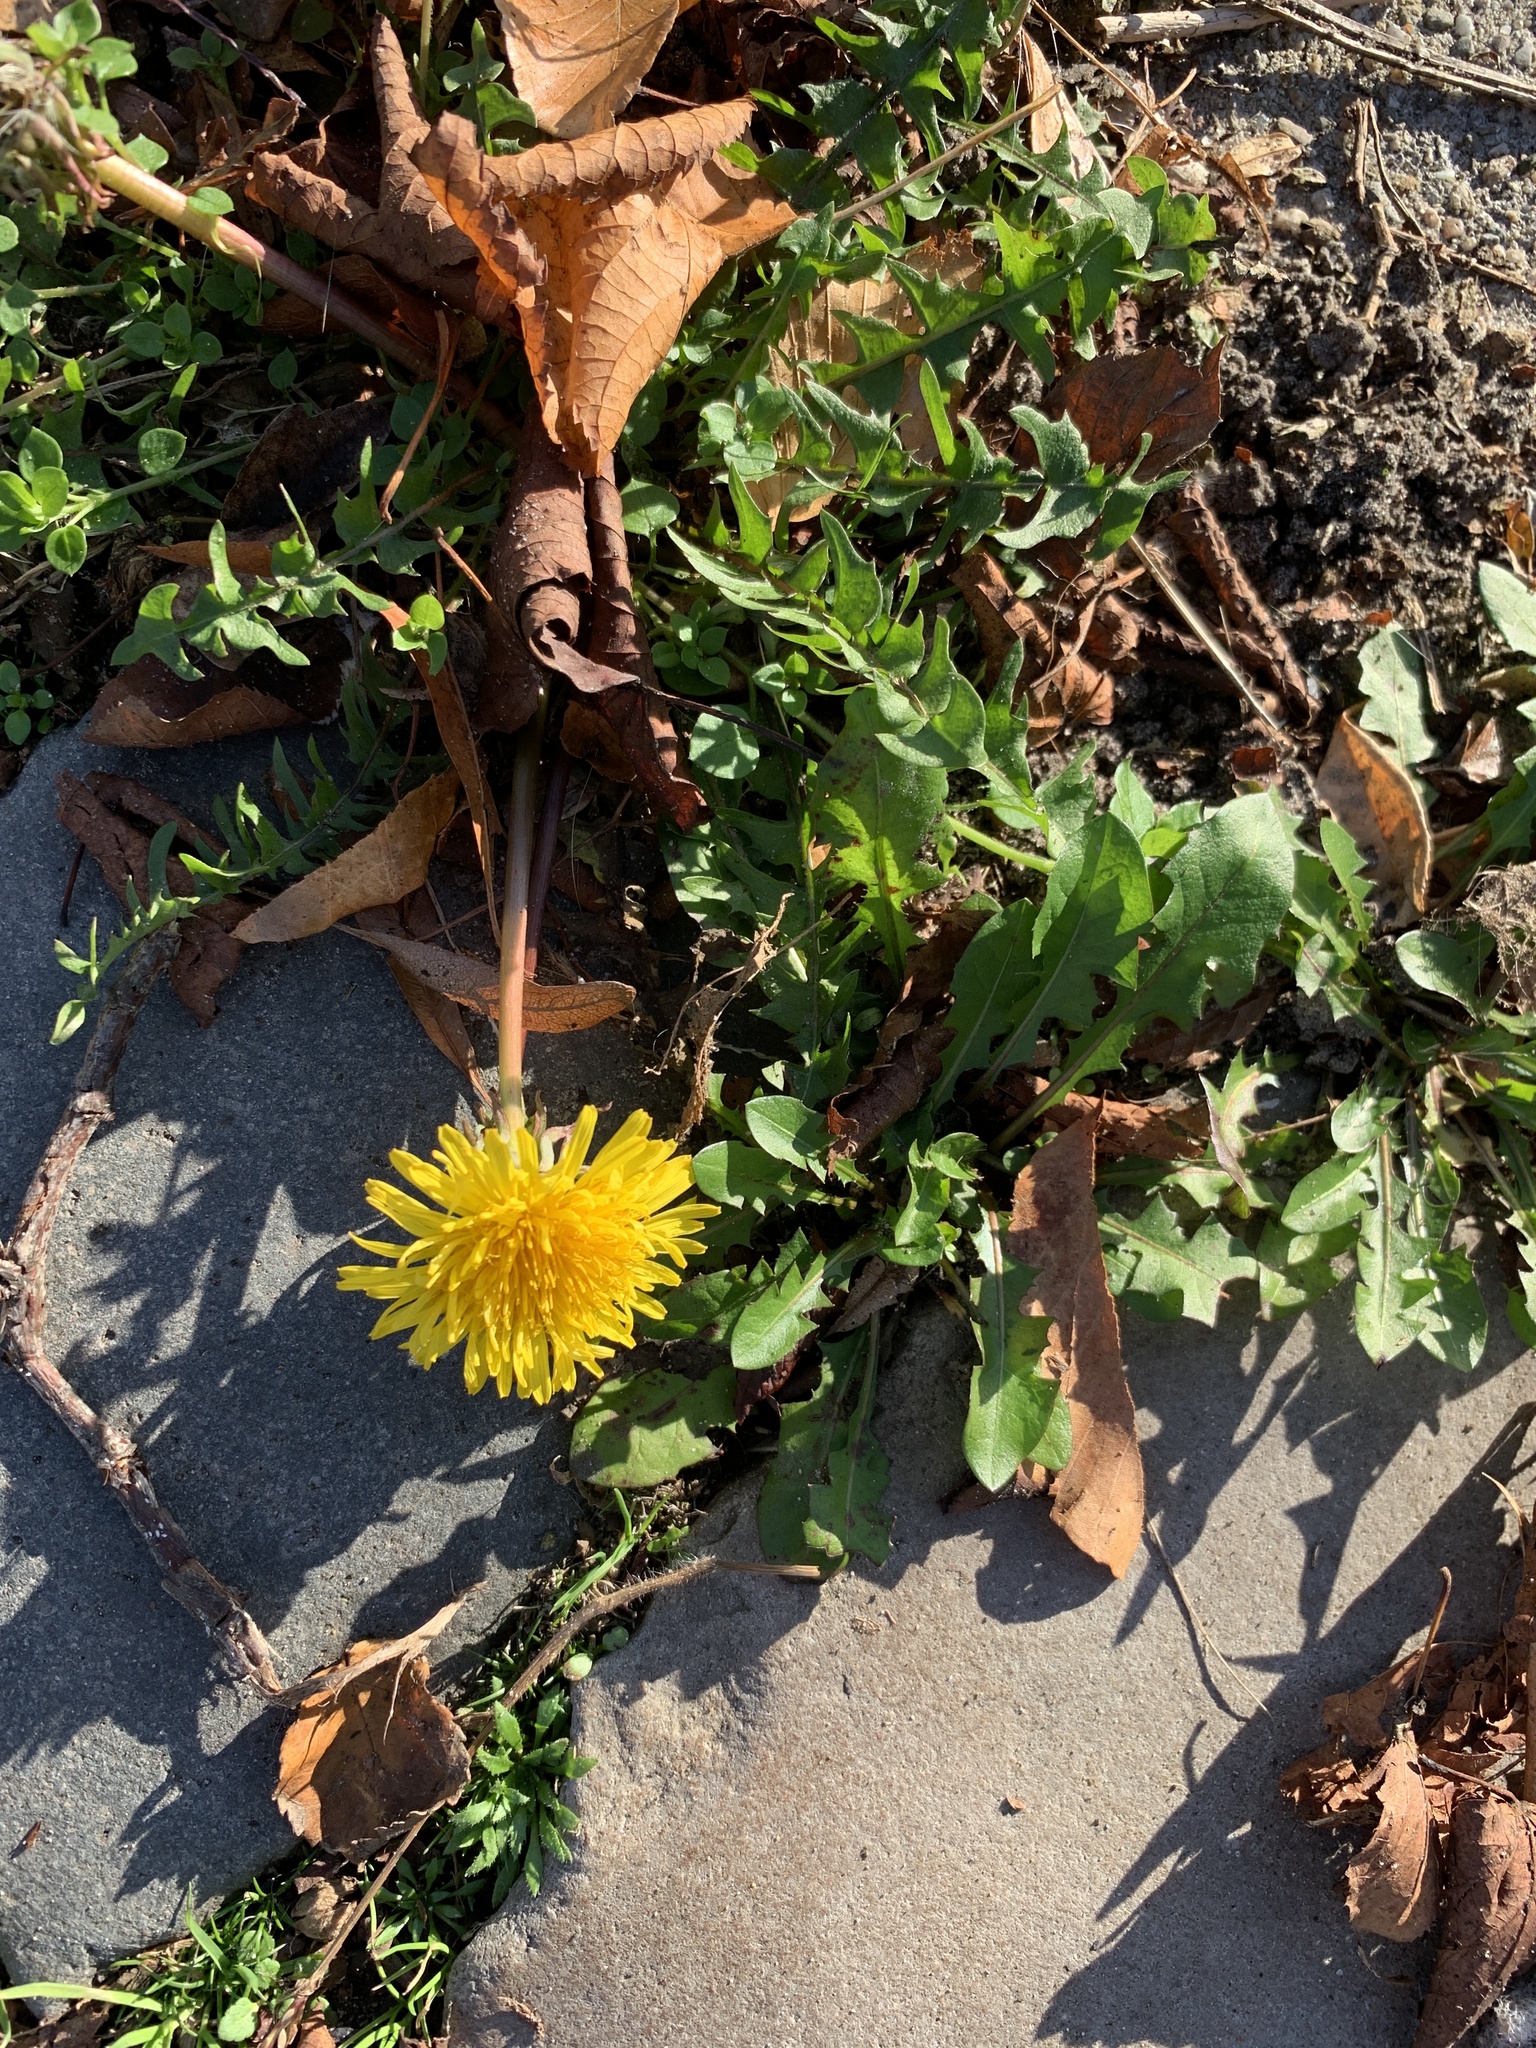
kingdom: Plantae
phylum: Tracheophyta
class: Magnoliopsida
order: Asterales
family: Asteraceae
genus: Taraxacum
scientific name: Taraxacum officinale
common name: Common dandelion
